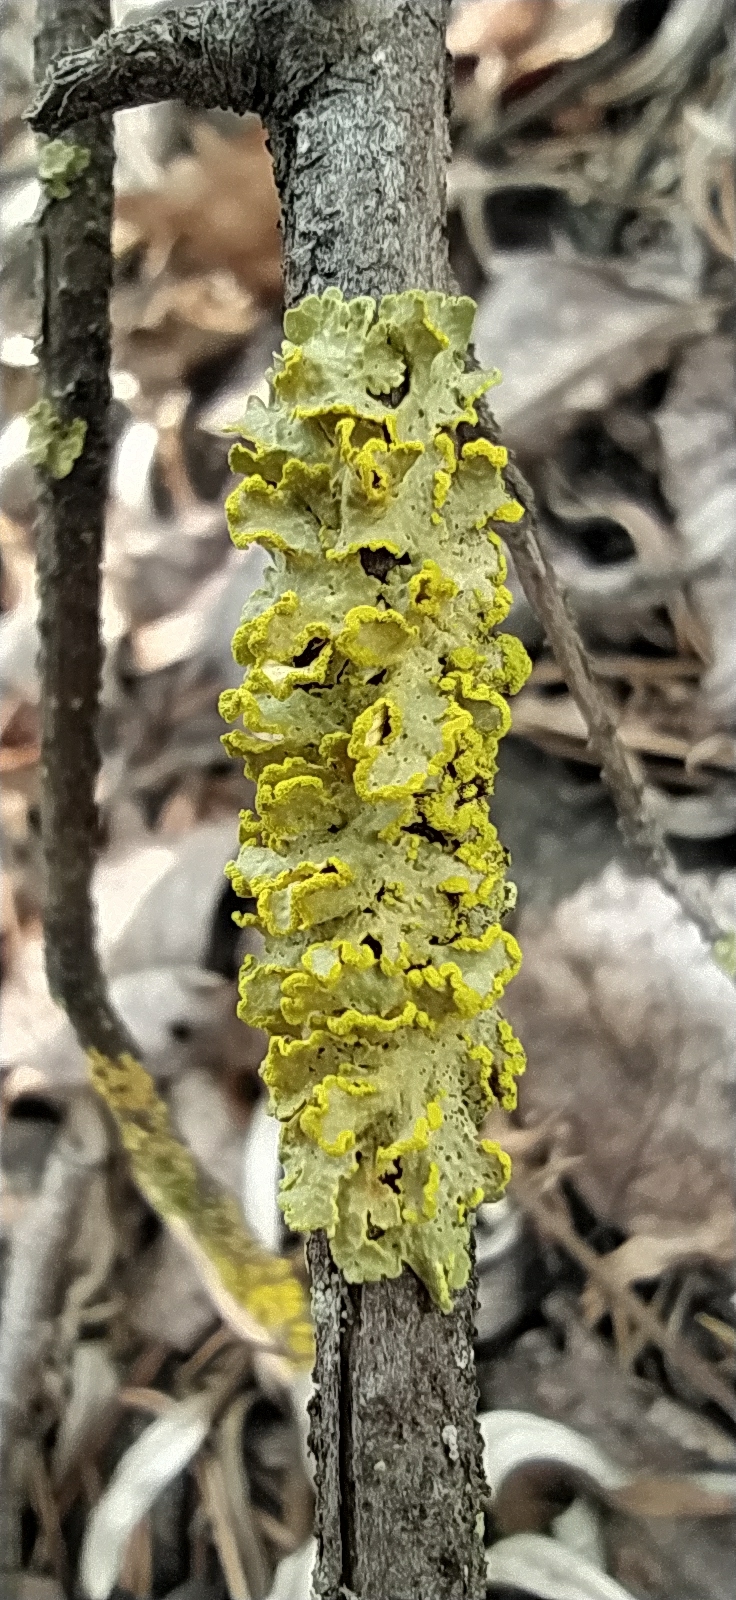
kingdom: Fungi
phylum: Ascomycota
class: Lecanoromycetes
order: Lecanorales
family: Parmeliaceae
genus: Vulpicida
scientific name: Vulpicida pinastri
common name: Powdered sunshine lichen
